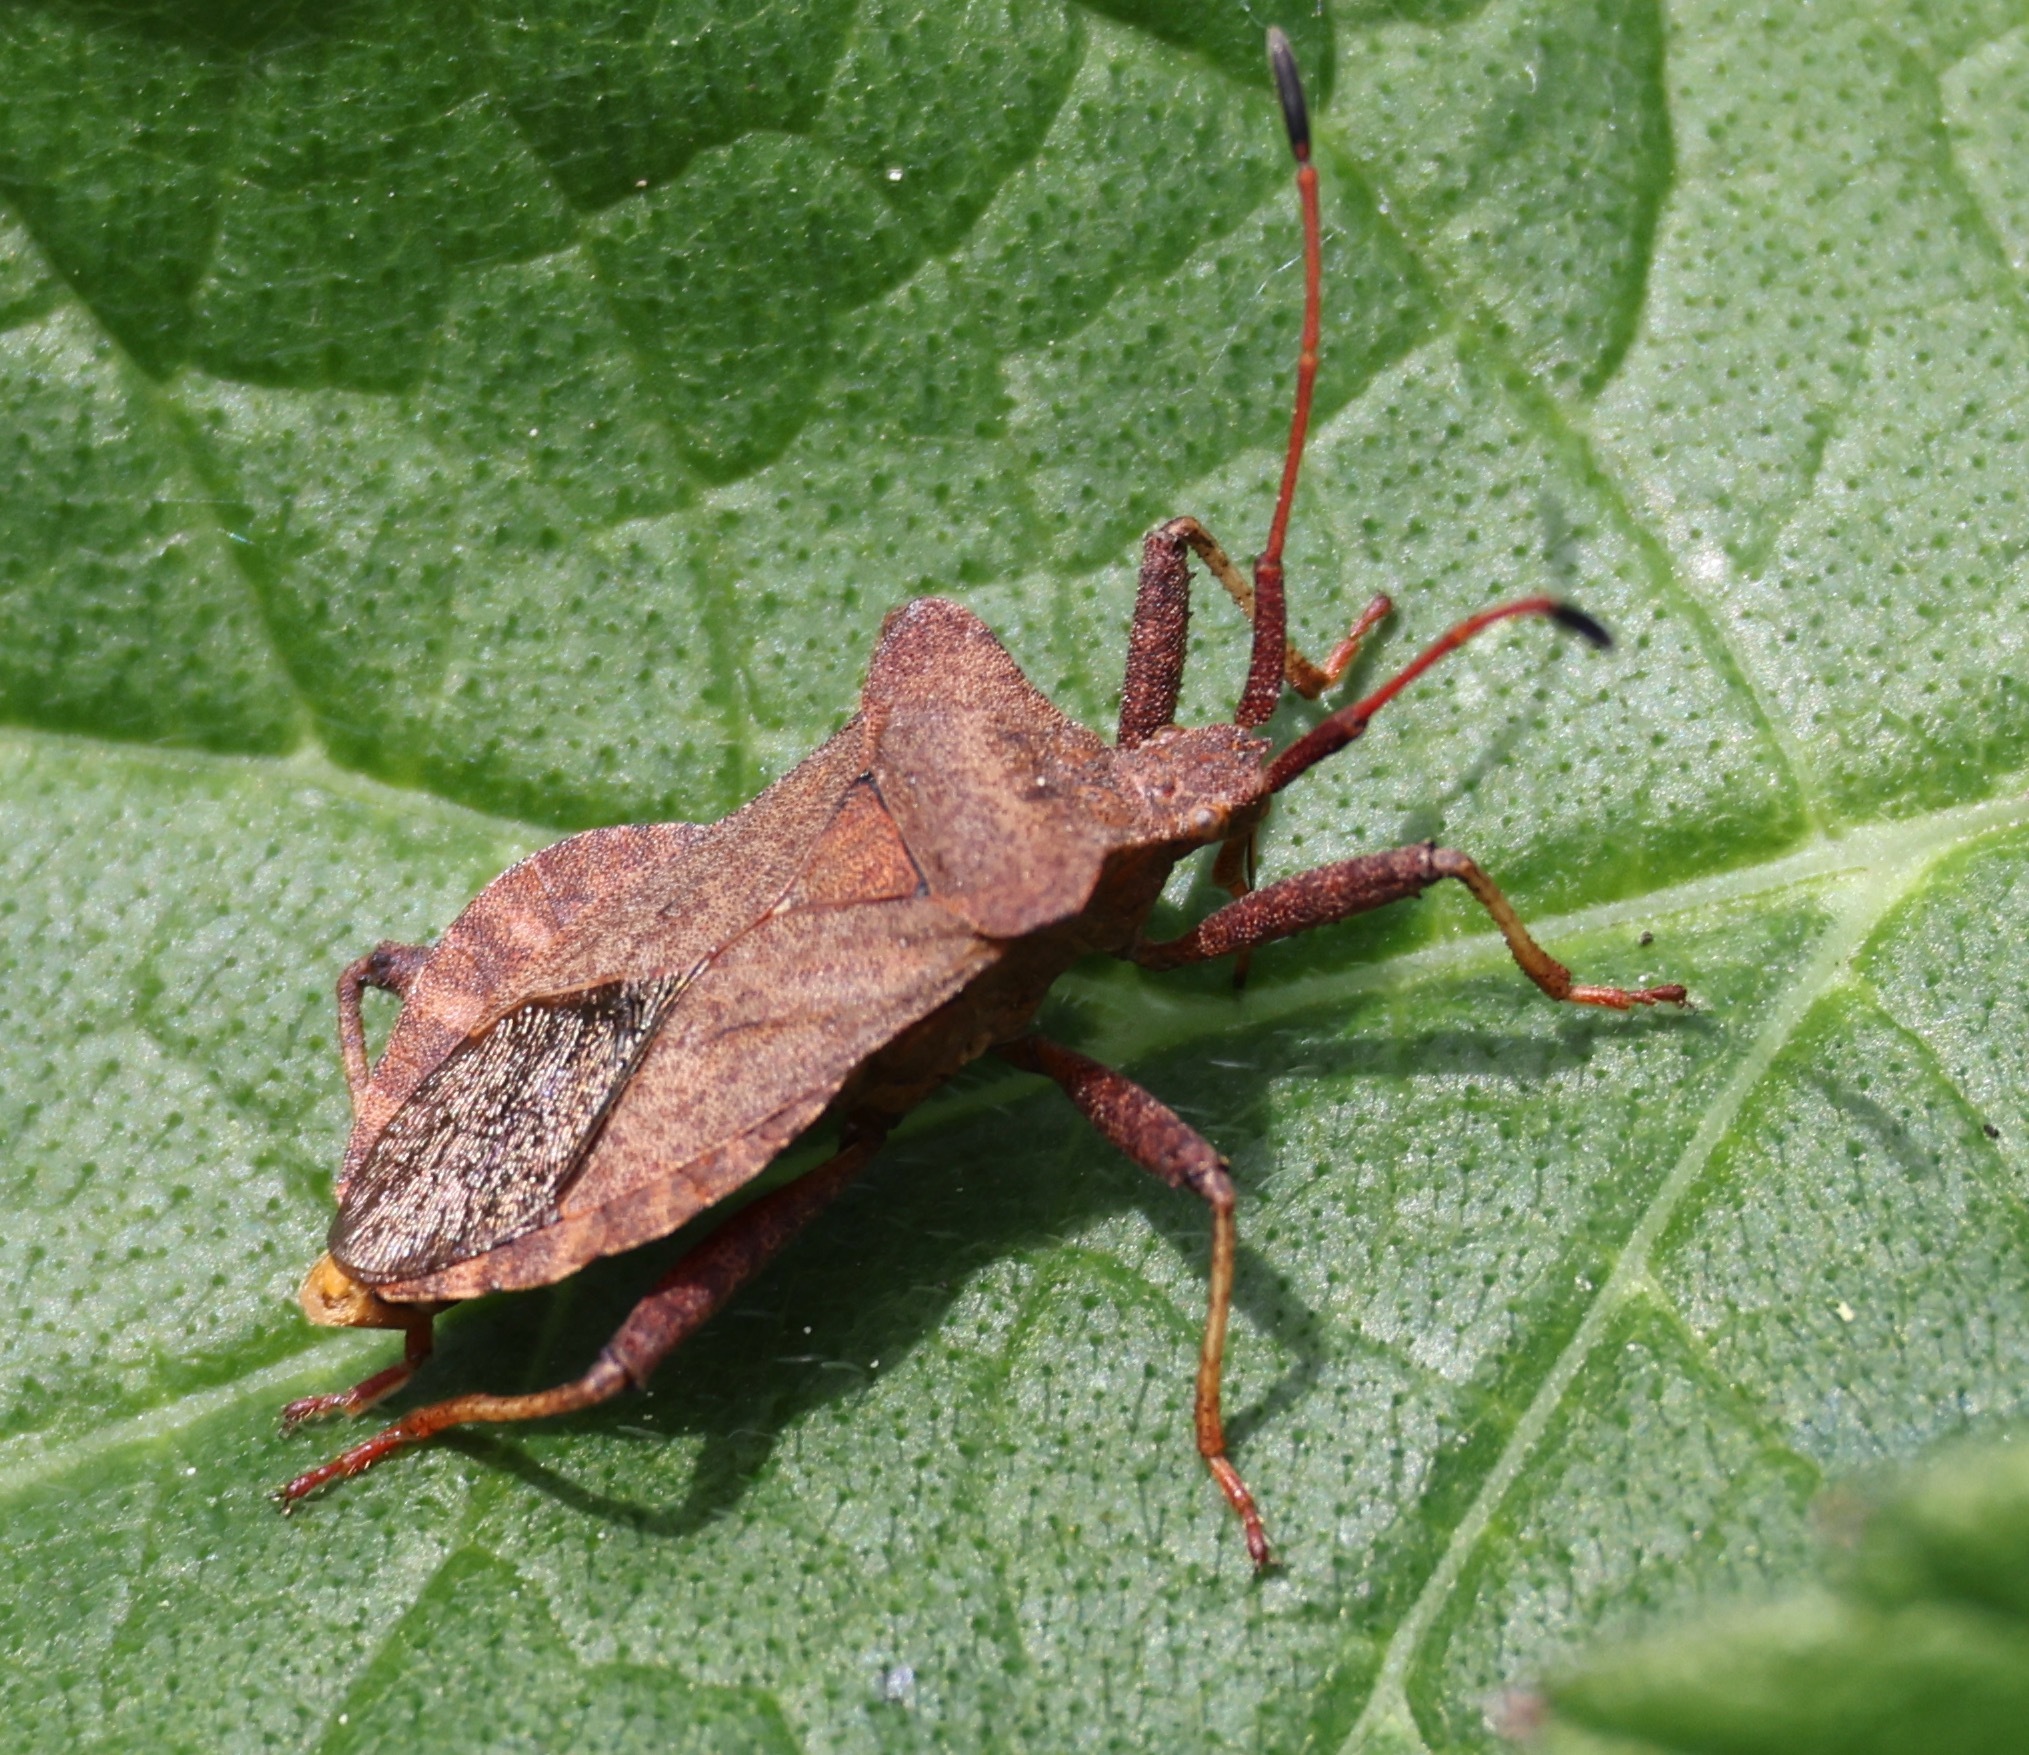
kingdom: Animalia
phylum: Arthropoda
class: Insecta
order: Hemiptera
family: Coreidae
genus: Coreus
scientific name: Coreus marginatus
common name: Dock bug
